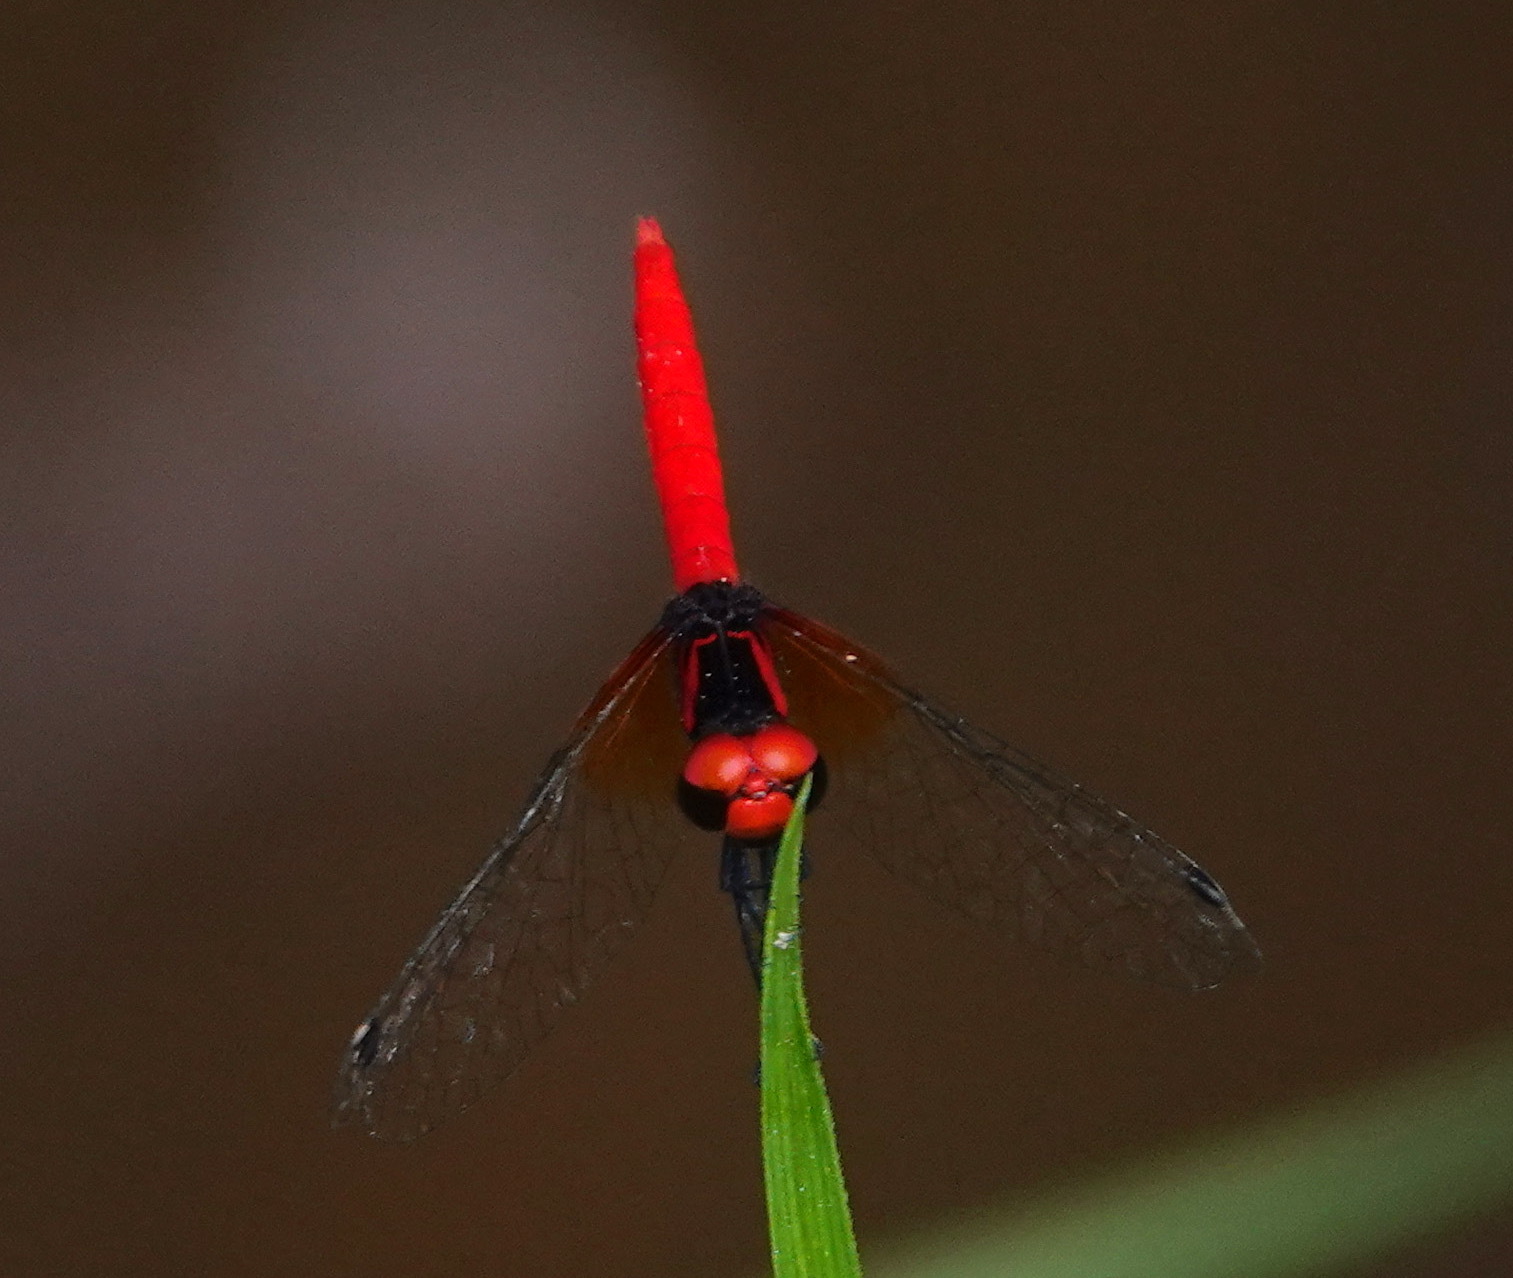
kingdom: Animalia
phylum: Arthropoda
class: Insecta
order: Odonata
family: Libellulidae
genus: Nannophya
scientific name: Nannophya pygmaea
